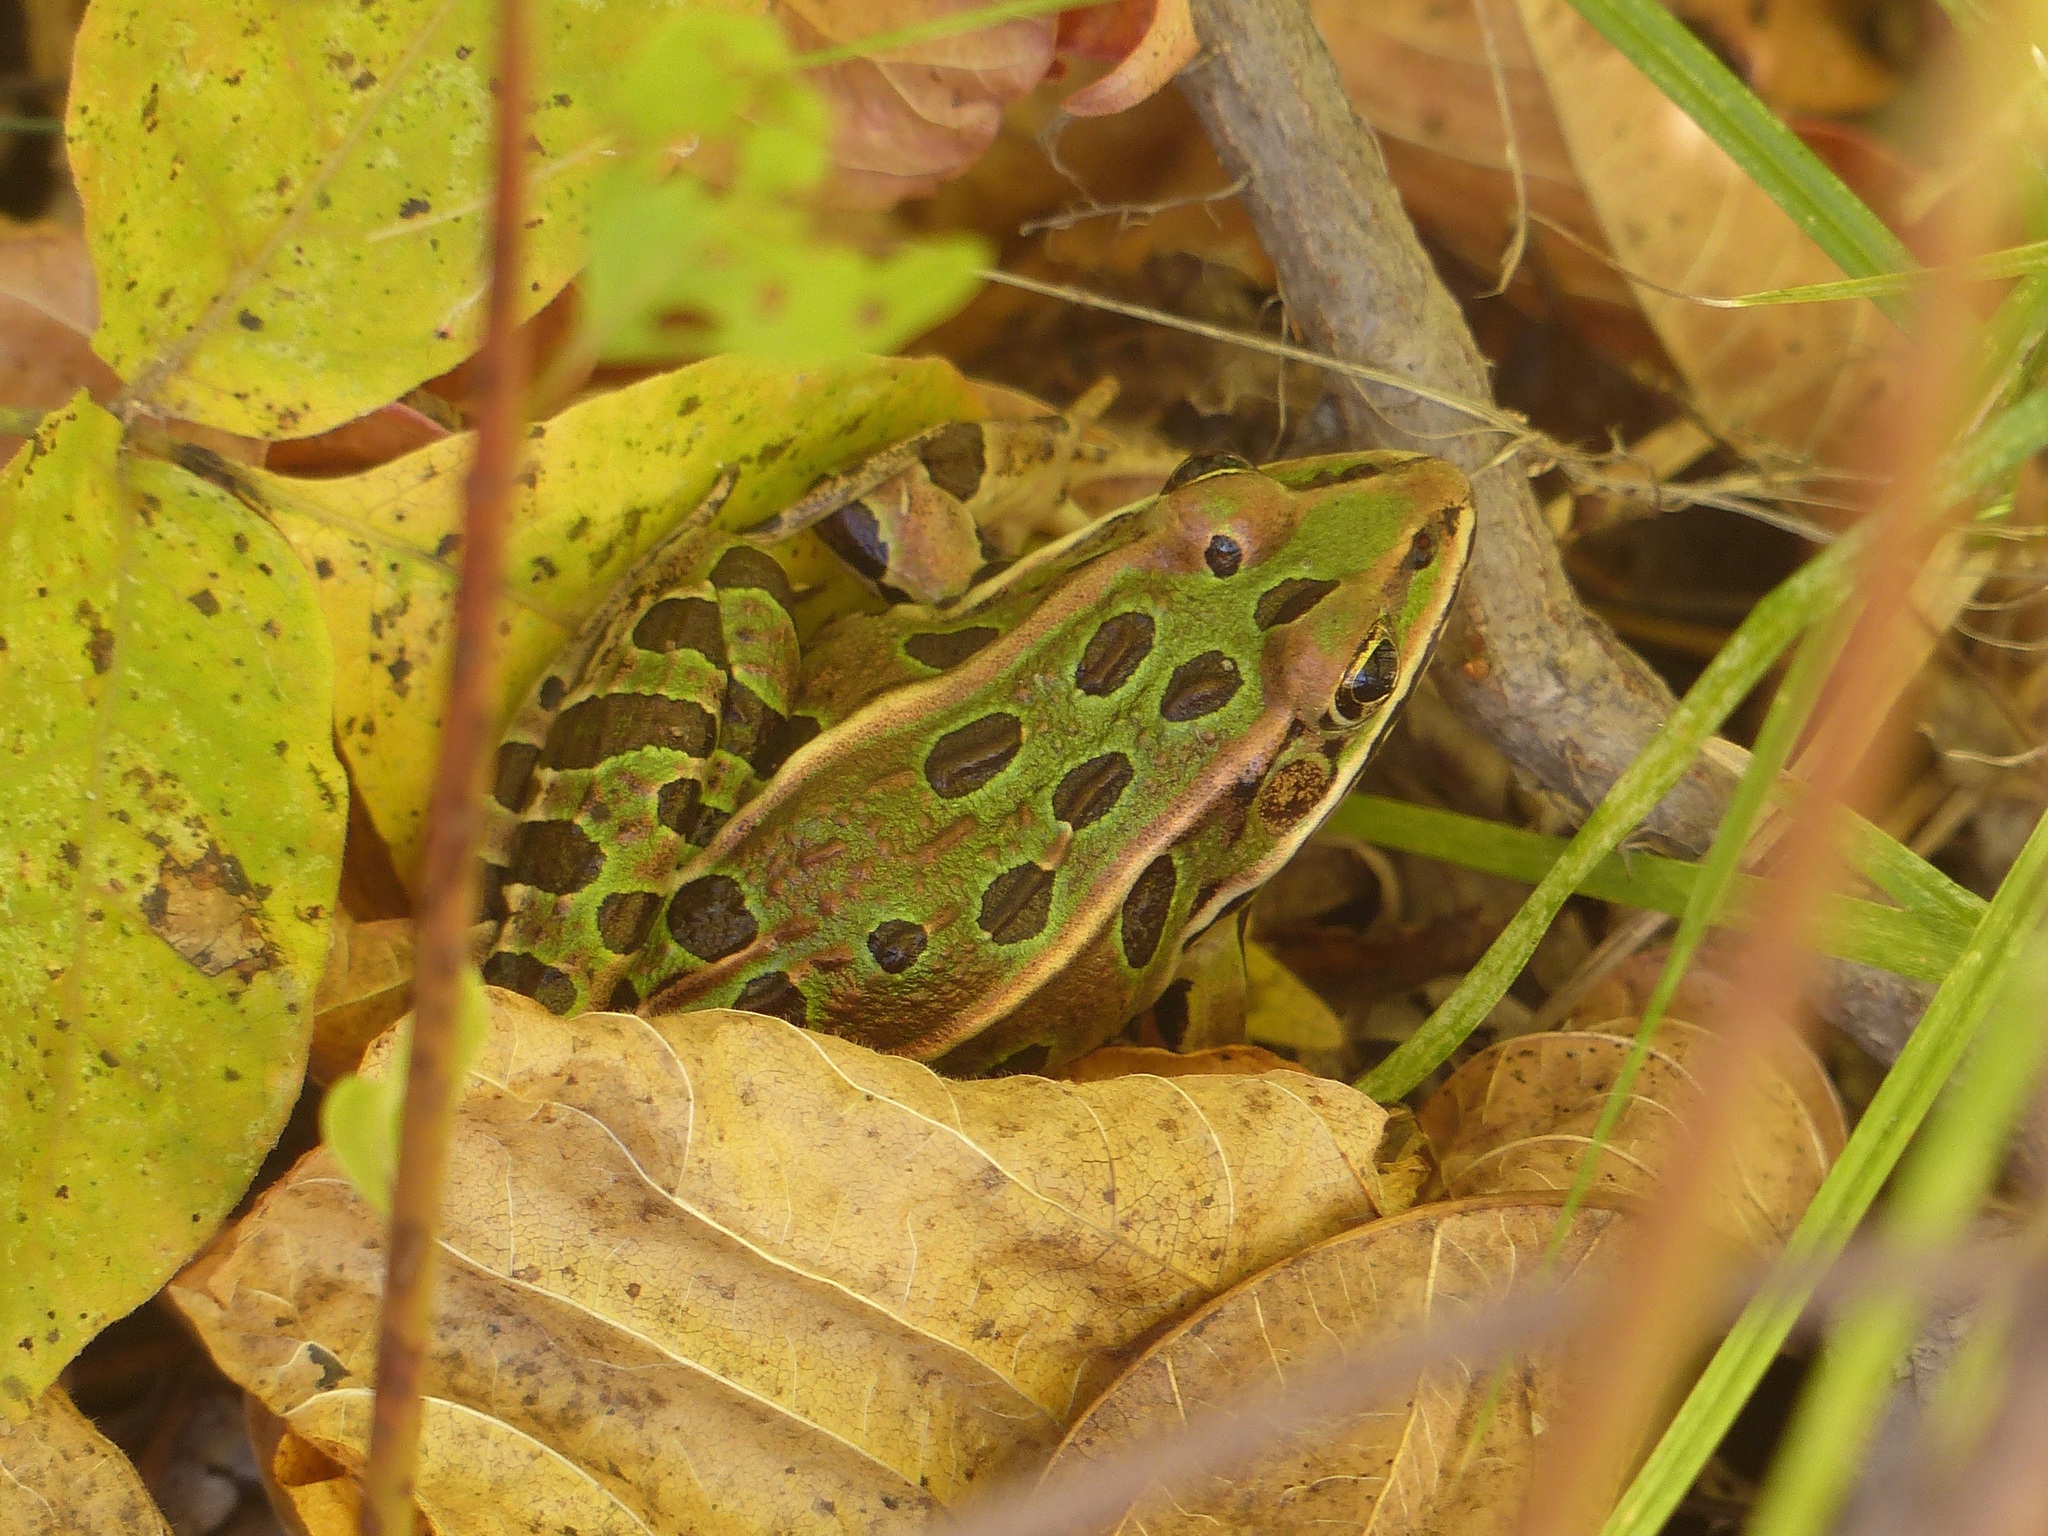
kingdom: Animalia
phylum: Chordata
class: Amphibia
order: Anura
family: Ranidae
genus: Lithobates
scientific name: Lithobates pipiens
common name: Northern leopard frog
